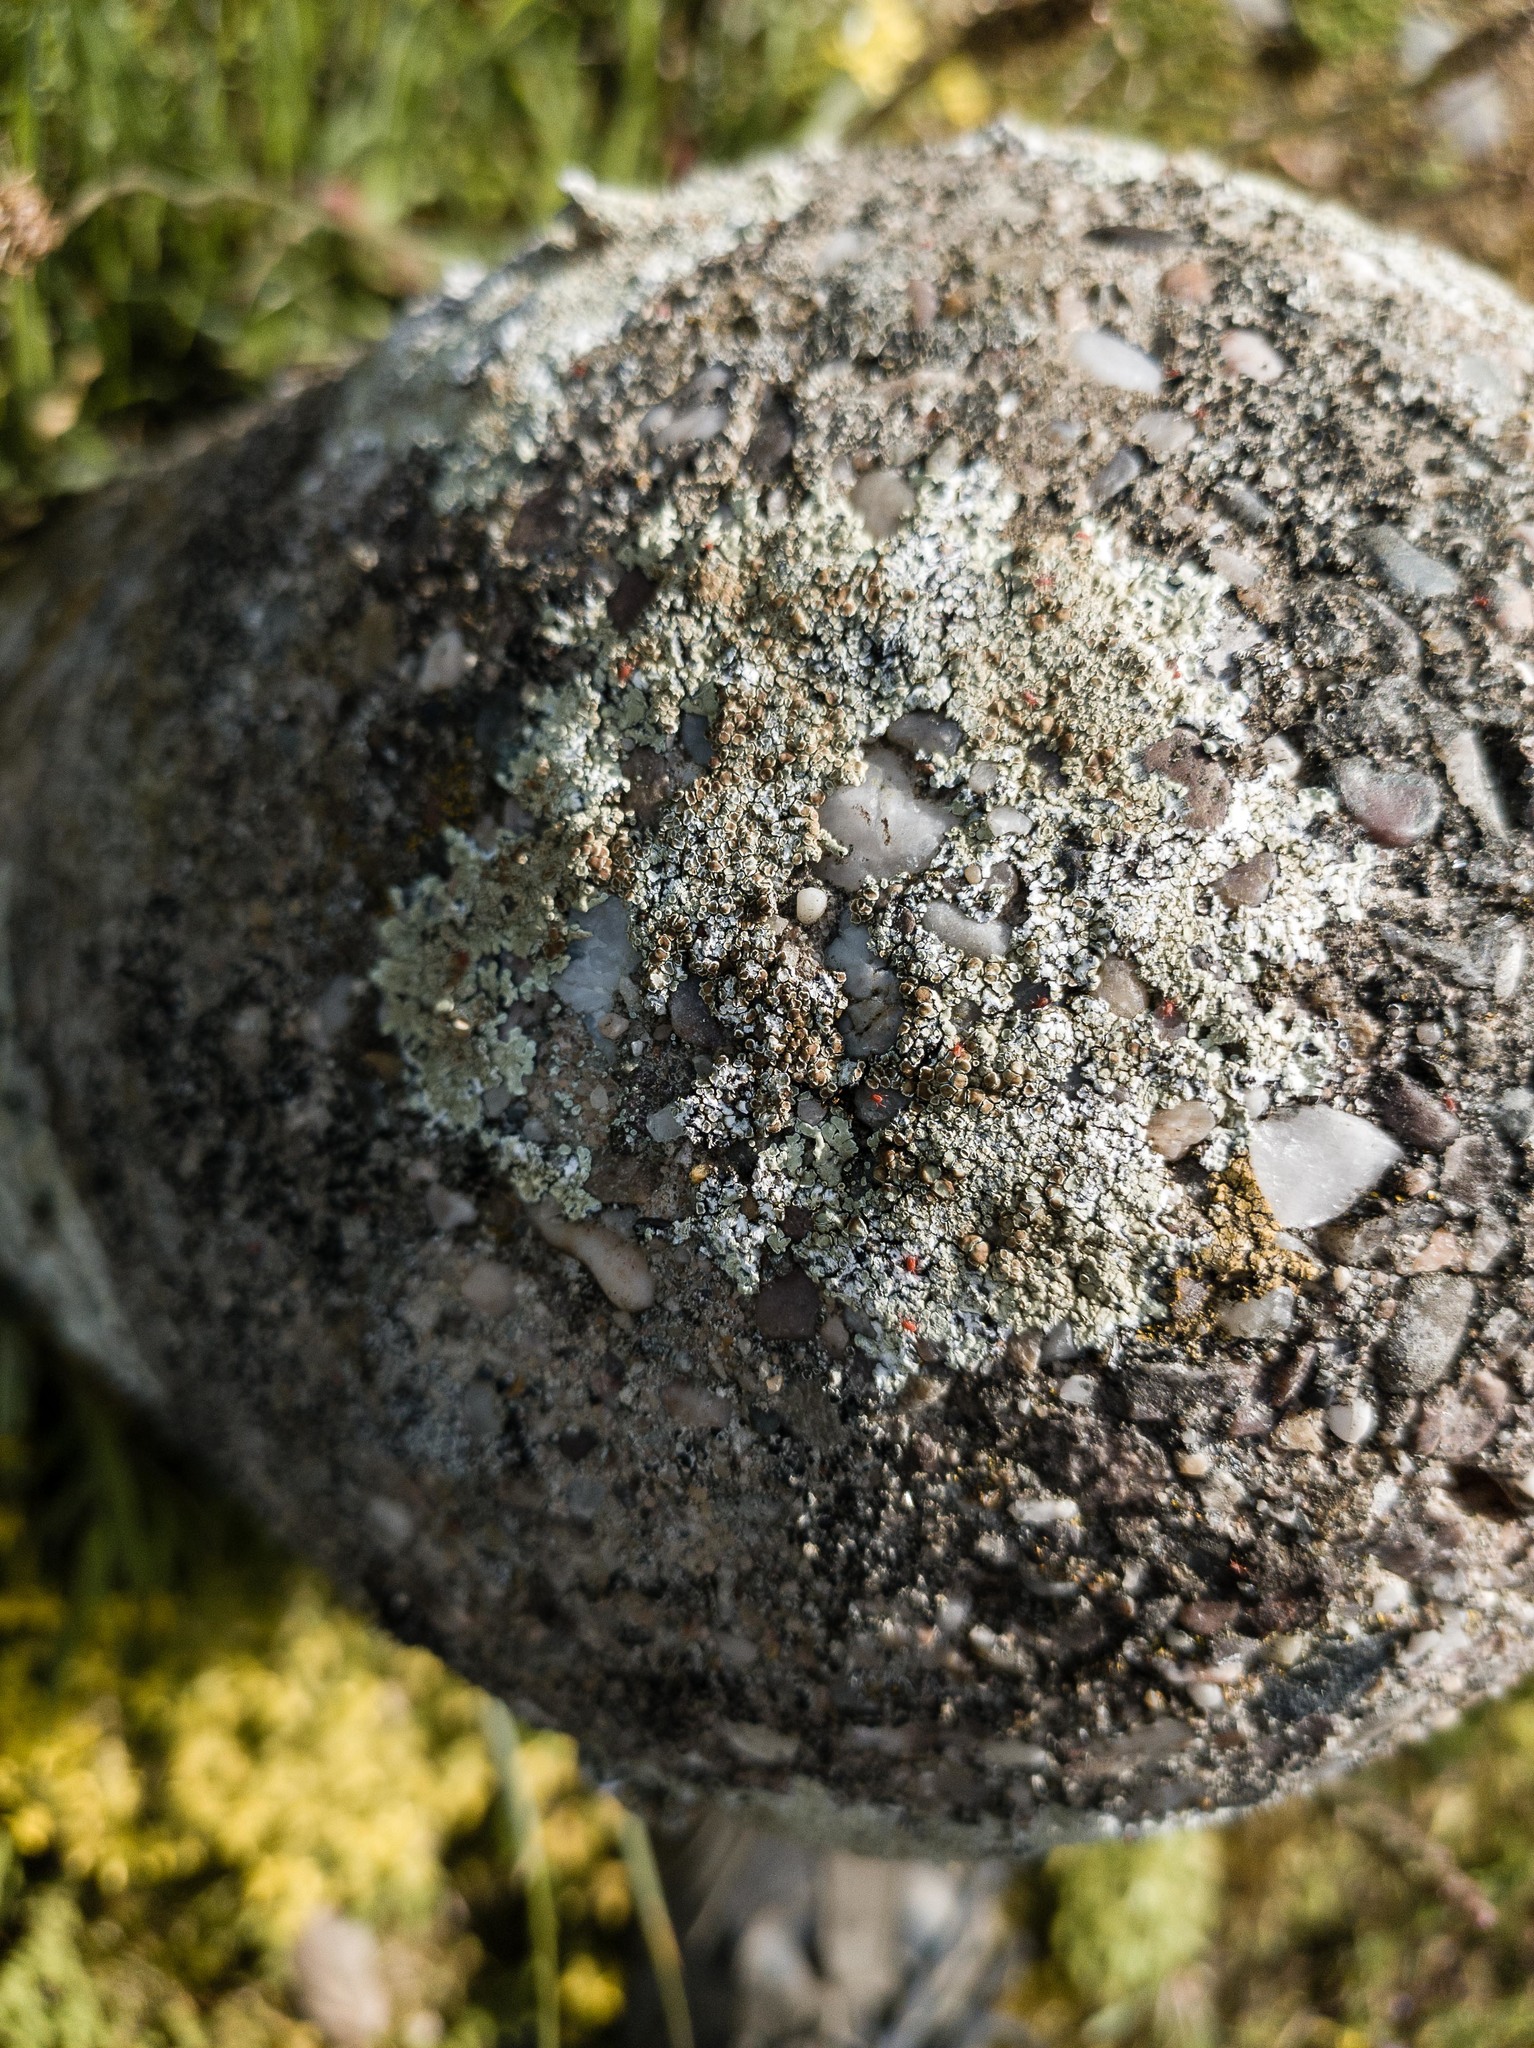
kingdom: Fungi
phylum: Ascomycota
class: Lecanoromycetes
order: Lecanorales
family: Lecanoraceae
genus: Protoparmeliopsis
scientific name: Protoparmeliopsis muralis
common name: Stonewall rim lichen
